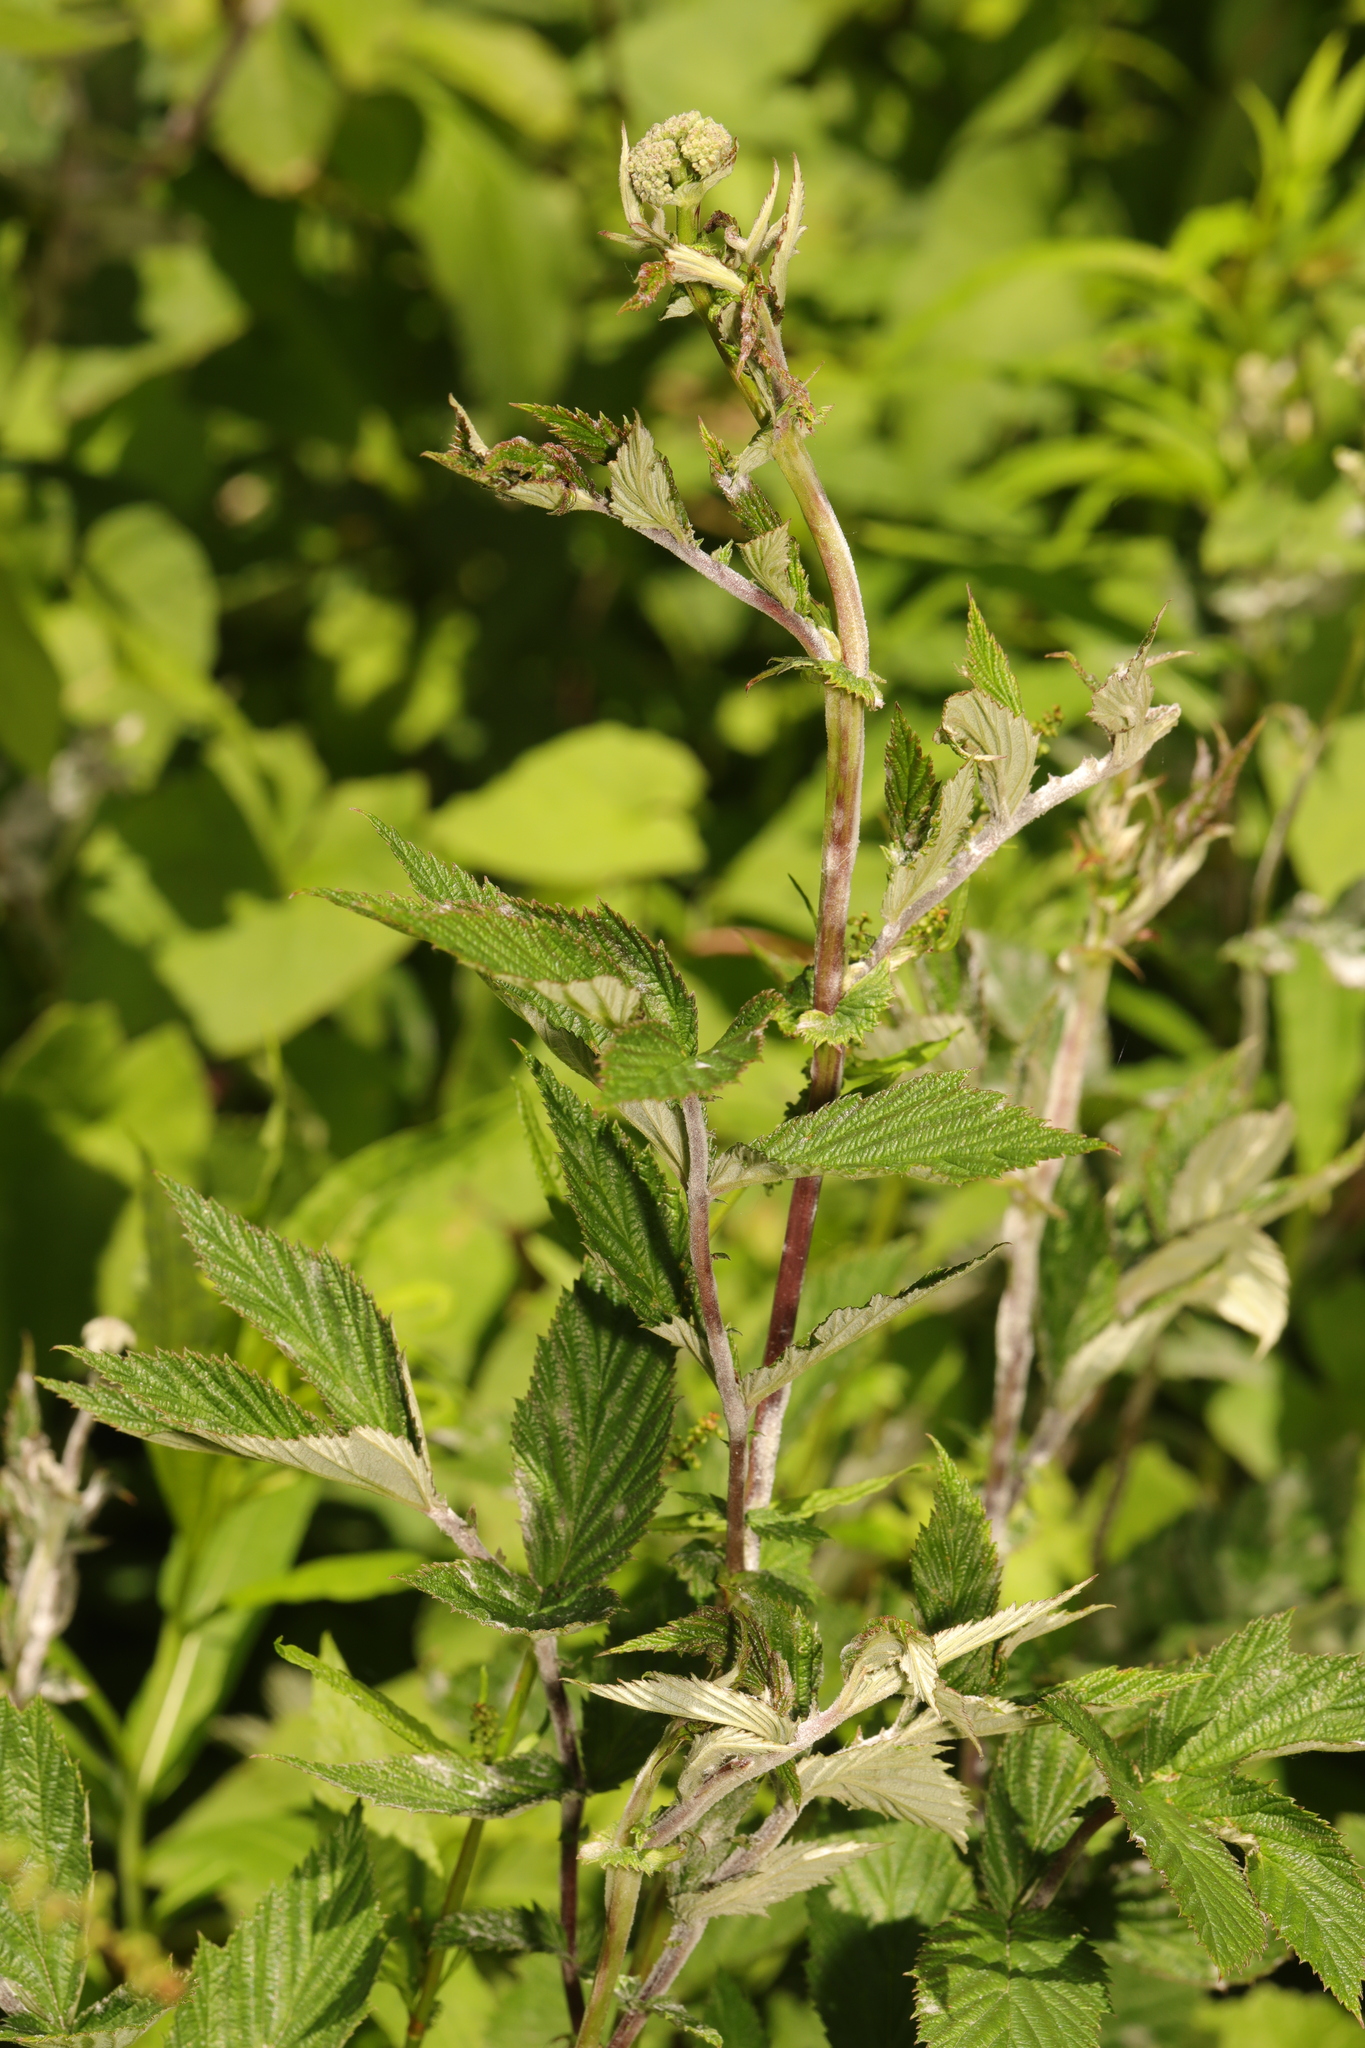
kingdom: Plantae
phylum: Tracheophyta
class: Magnoliopsida
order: Rosales
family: Rosaceae
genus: Filipendula
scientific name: Filipendula ulmaria
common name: Meadowsweet
